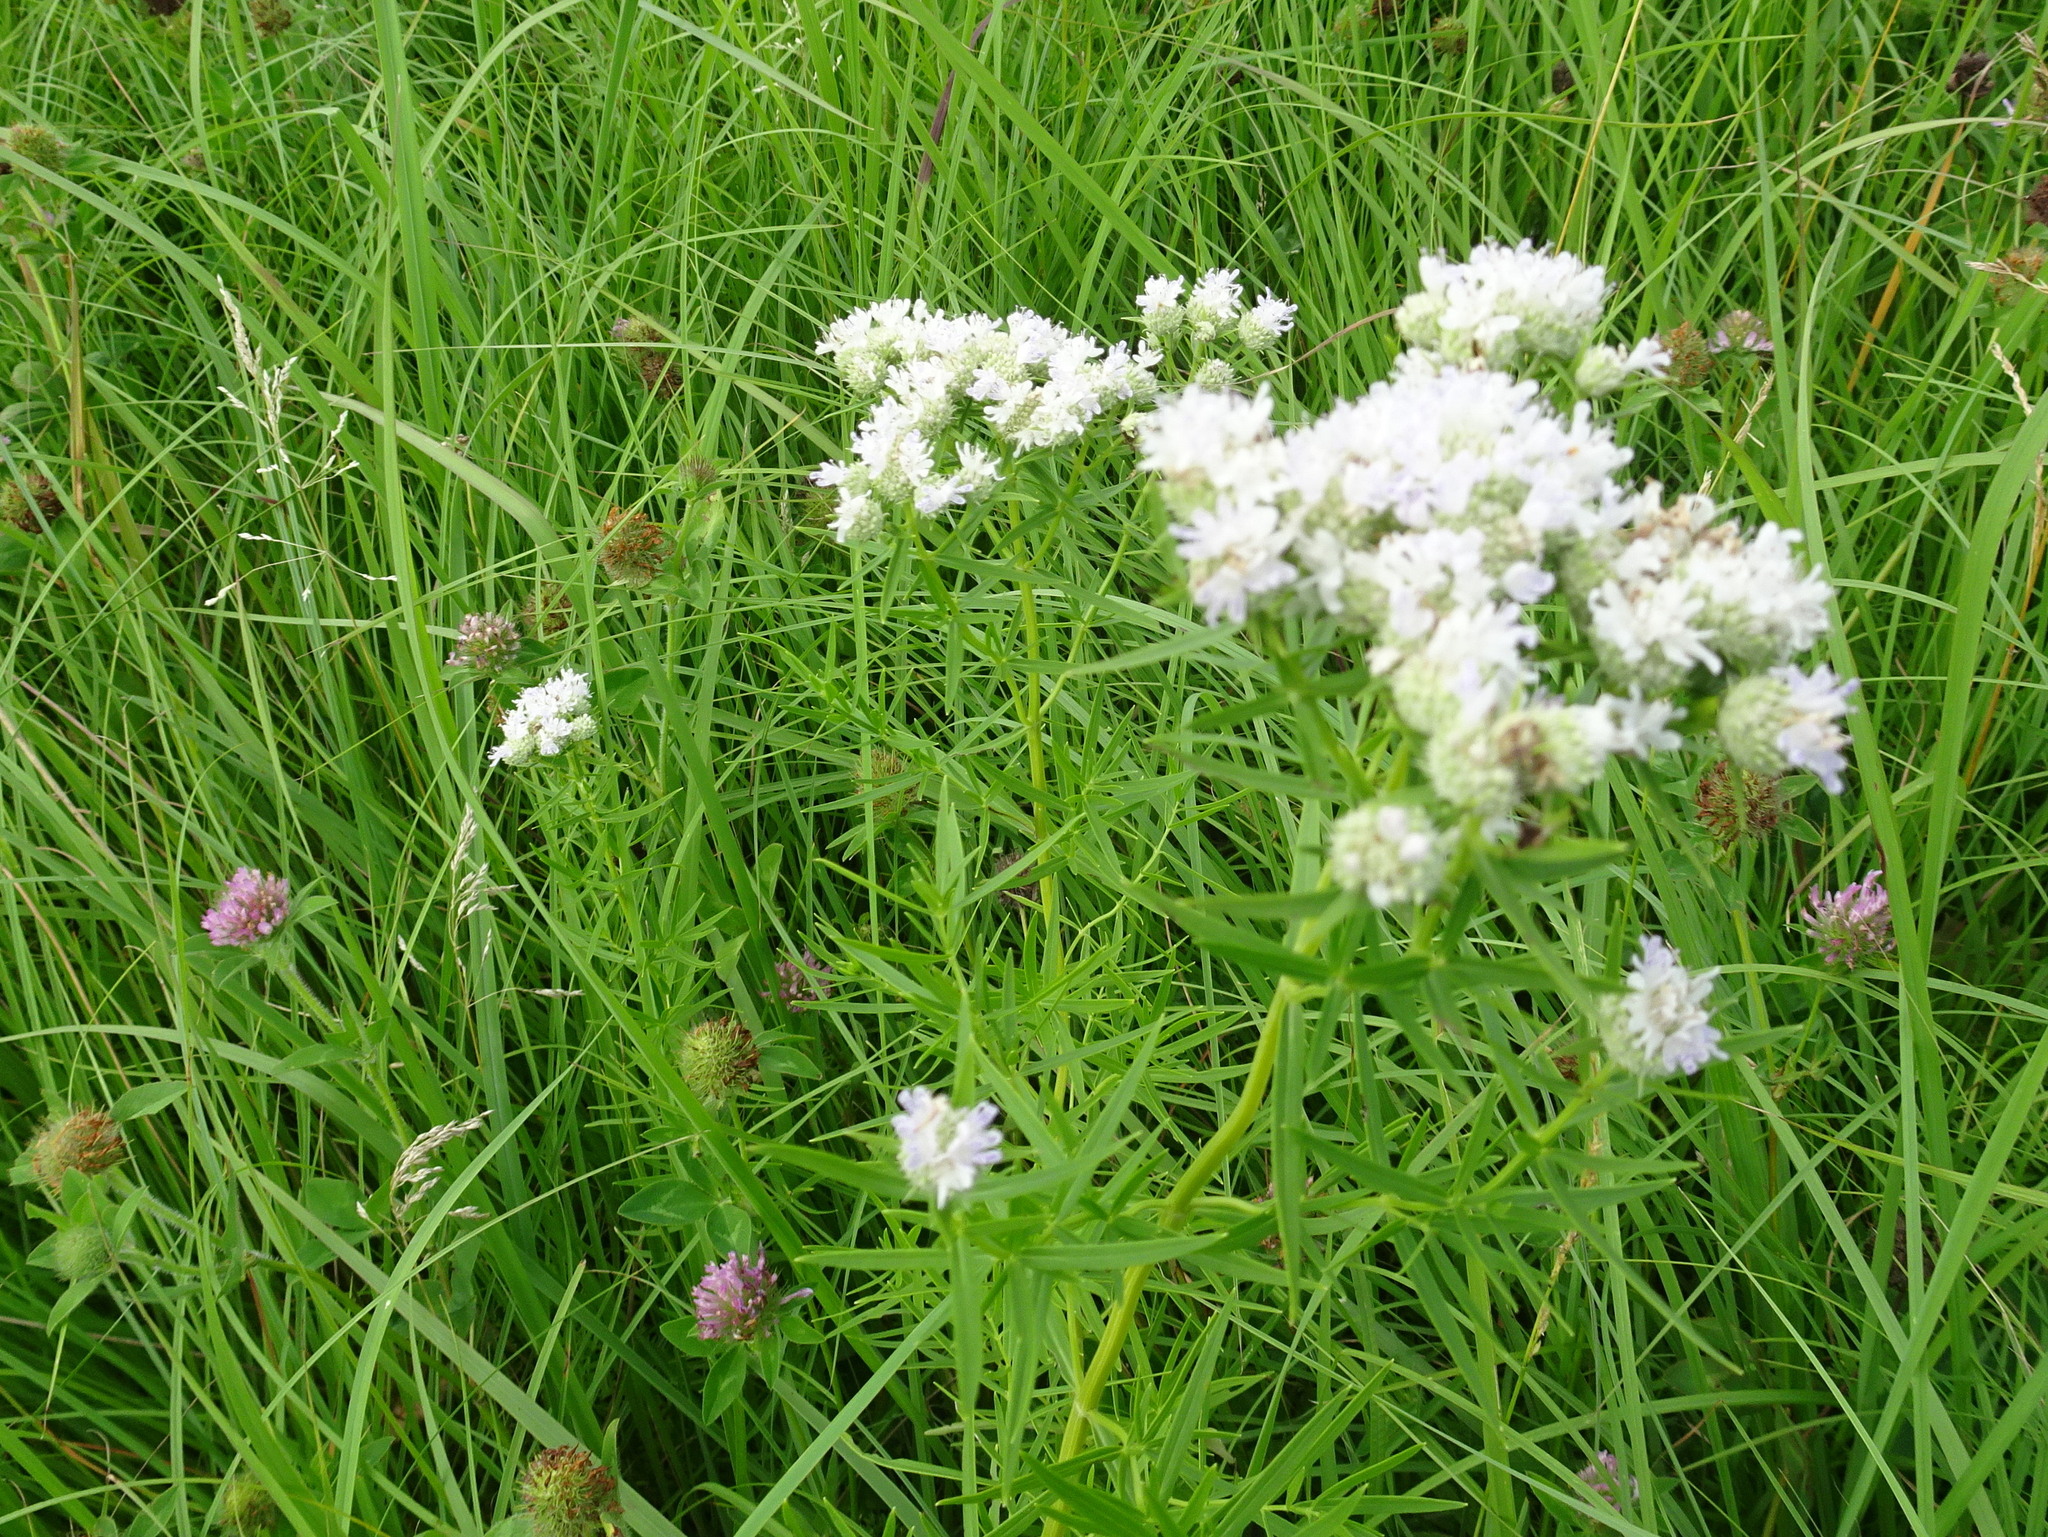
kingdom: Plantae
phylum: Tracheophyta
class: Magnoliopsida
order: Lamiales
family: Lamiaceae
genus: Pycnanthemum
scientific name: Pycnanthemum tenuifolium
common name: Narrow-leaf mountain-mint
